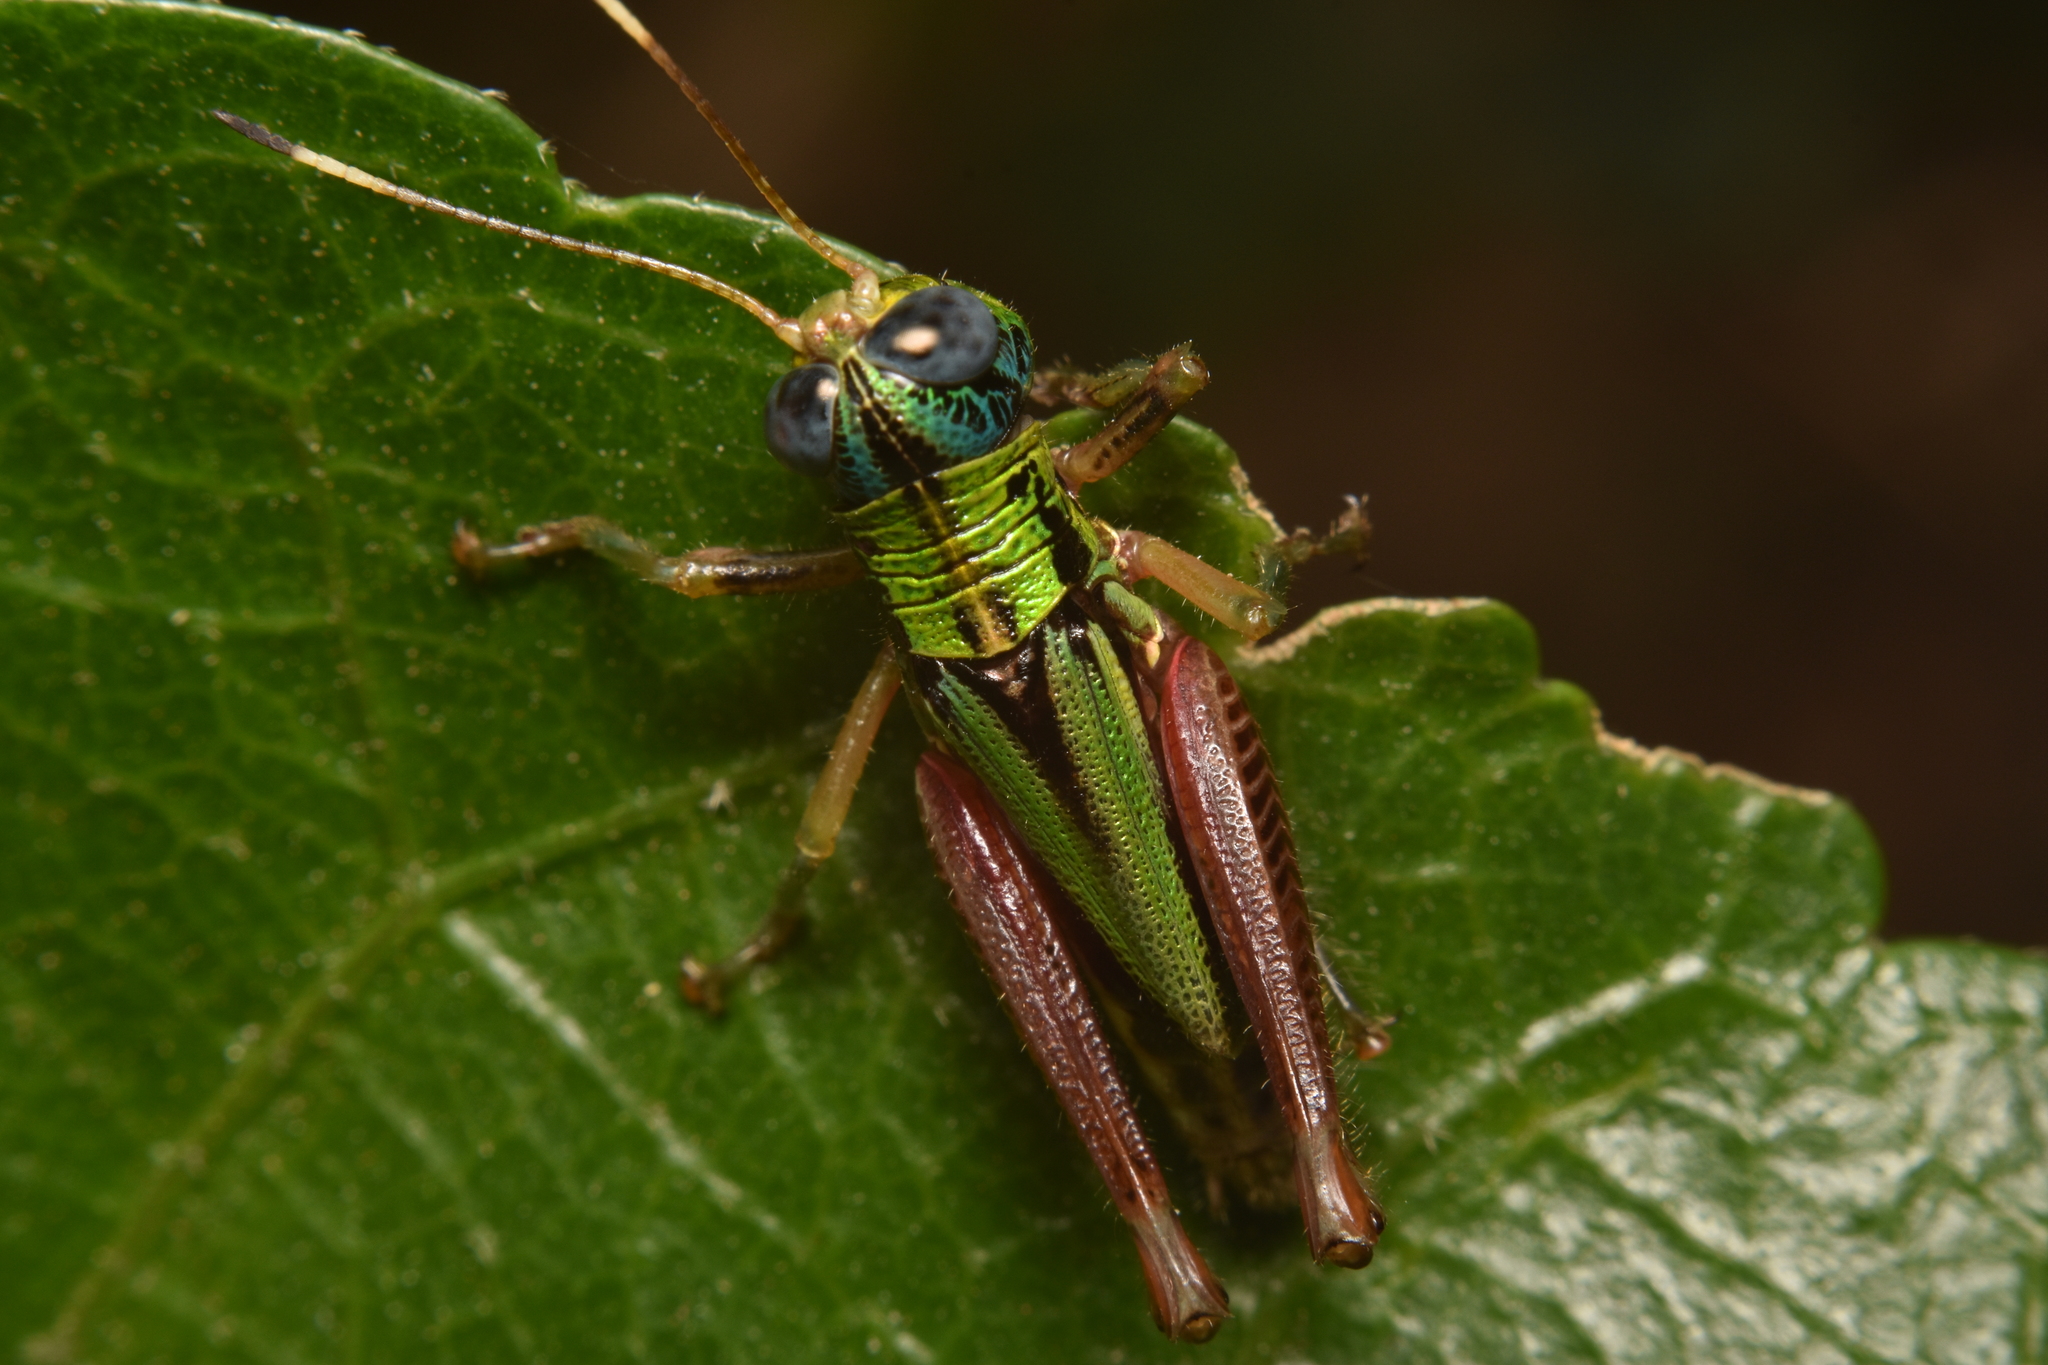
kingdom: Animalia
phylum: Arthropoda
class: Insecta
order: Orthoptera
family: Romaleidae
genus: Megacheilacris
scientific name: Megacheilacris vallensis
